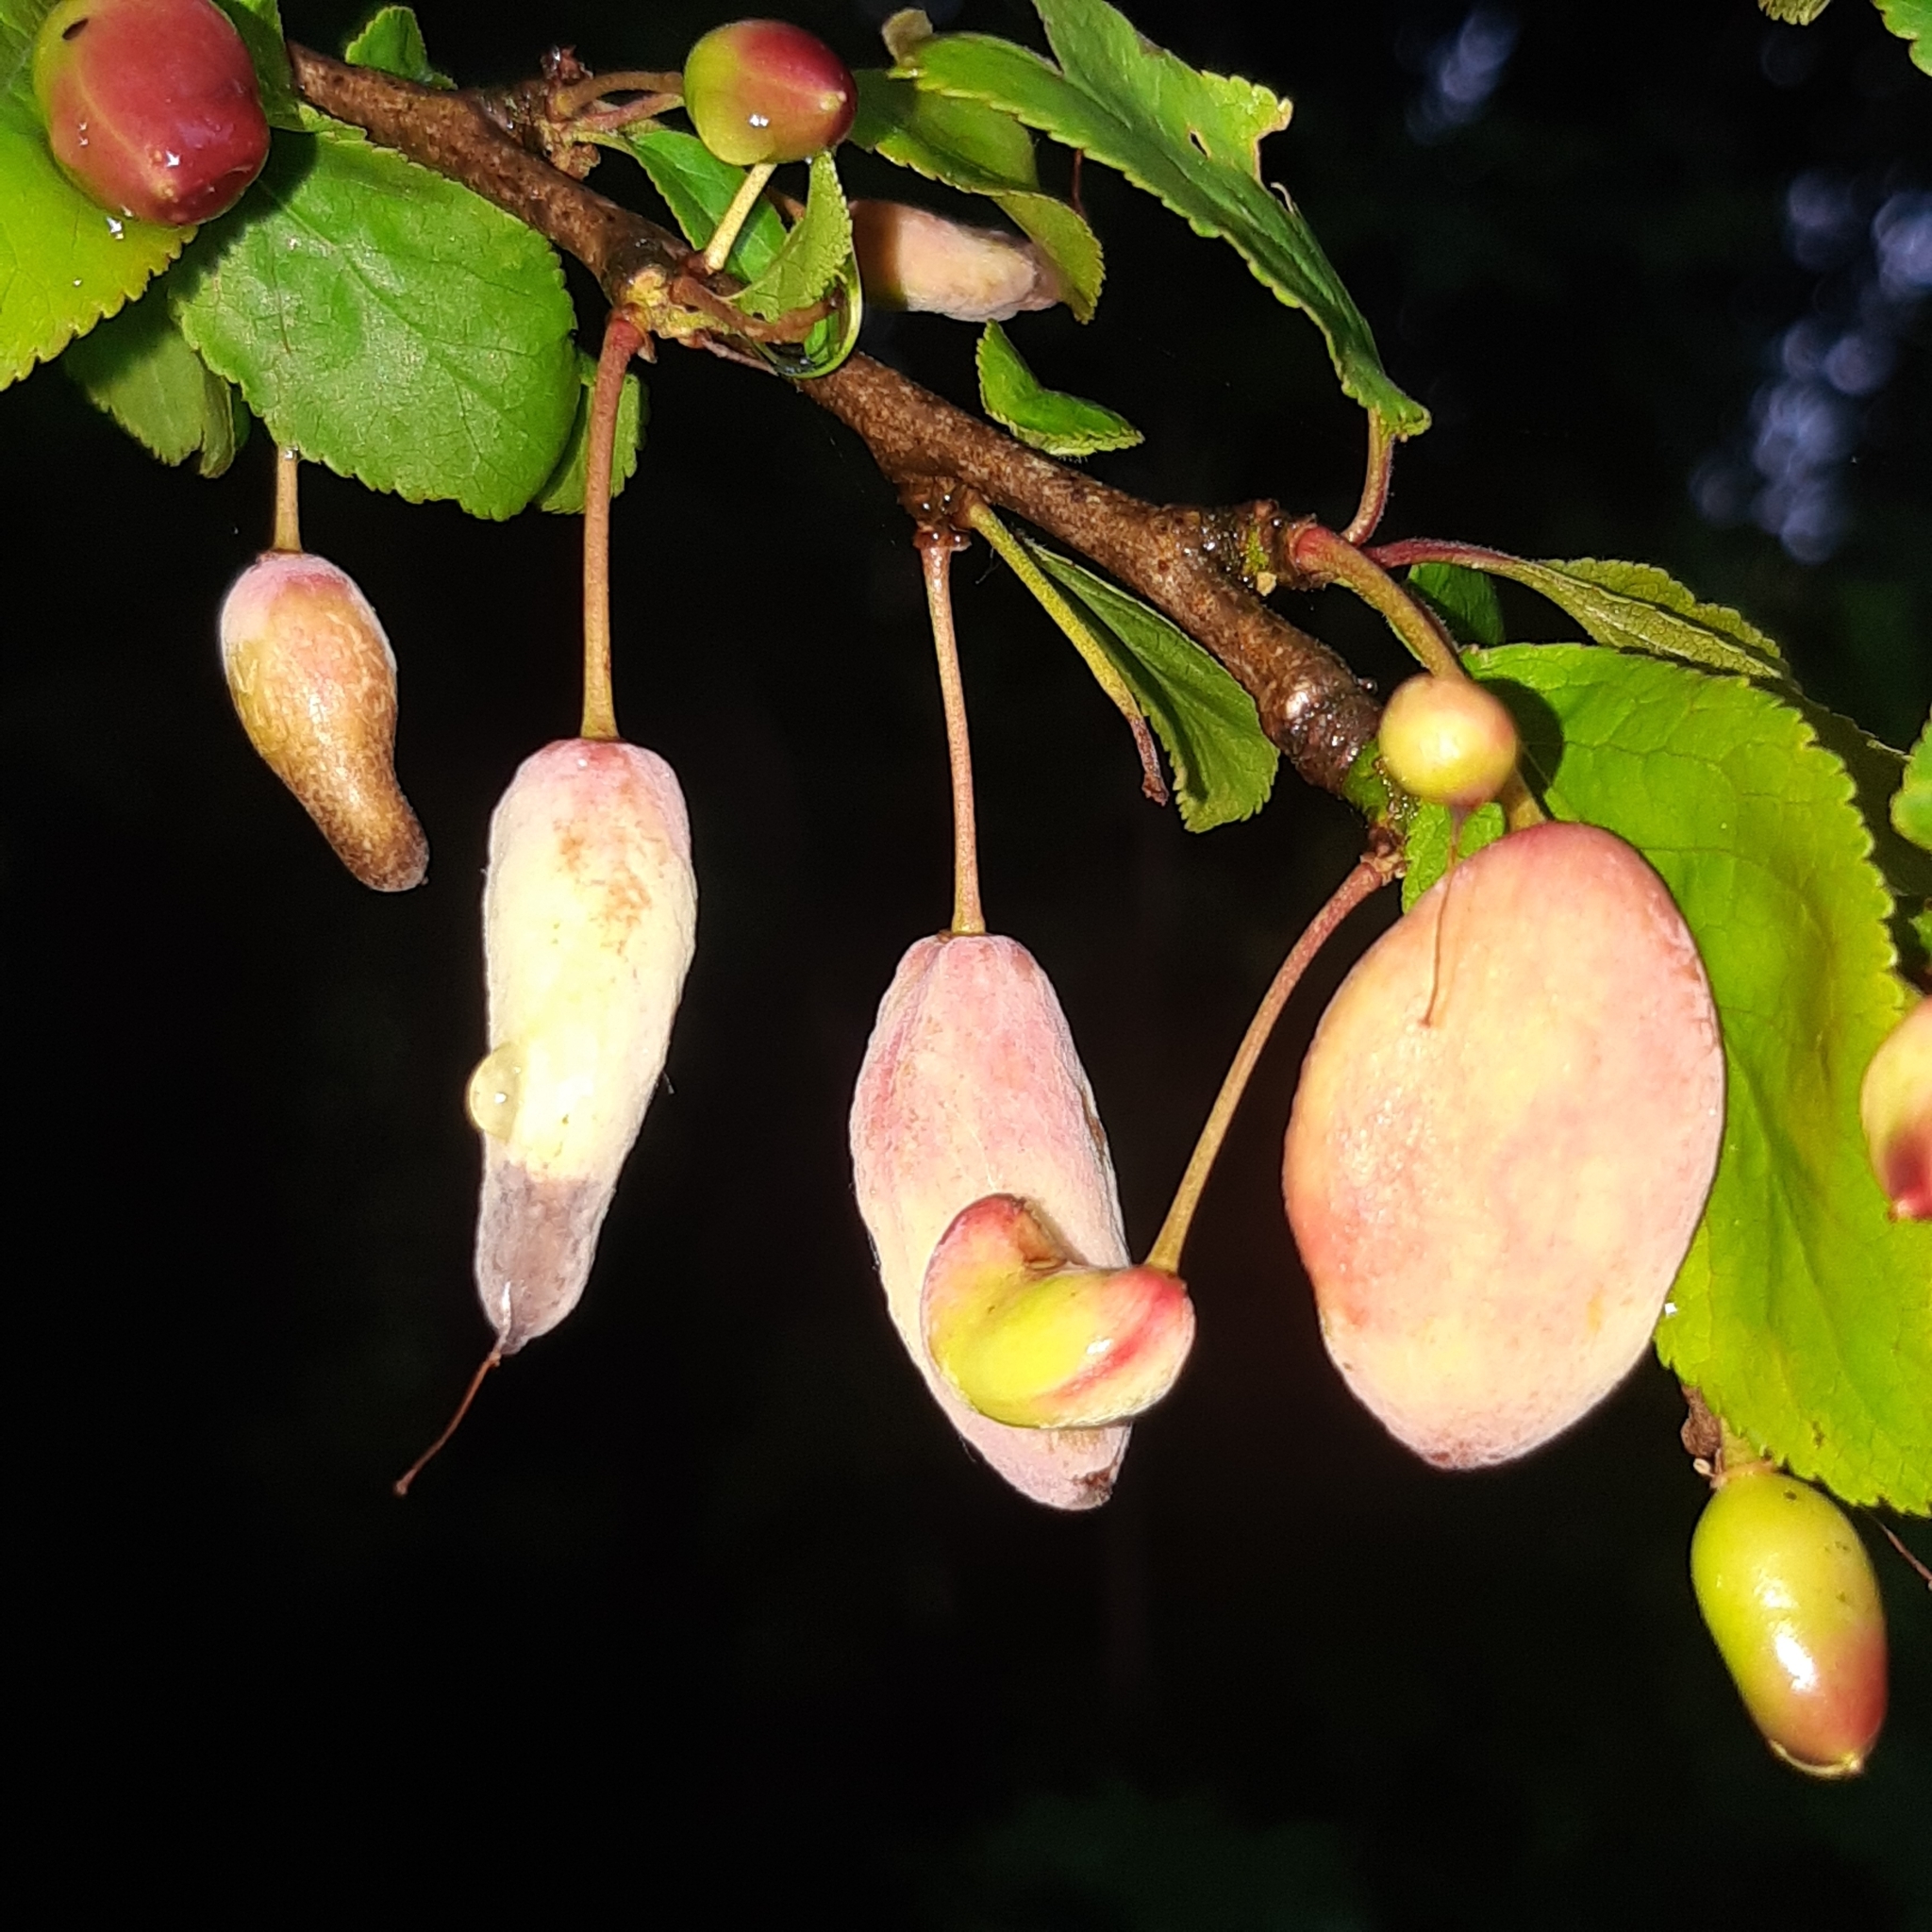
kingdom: Fungi
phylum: Ascomycota
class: Taphrinomycetes
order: Taphrinales
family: Taphrinaceae
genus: Taphrina
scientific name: Taphrina pruni
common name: Pocket plum
